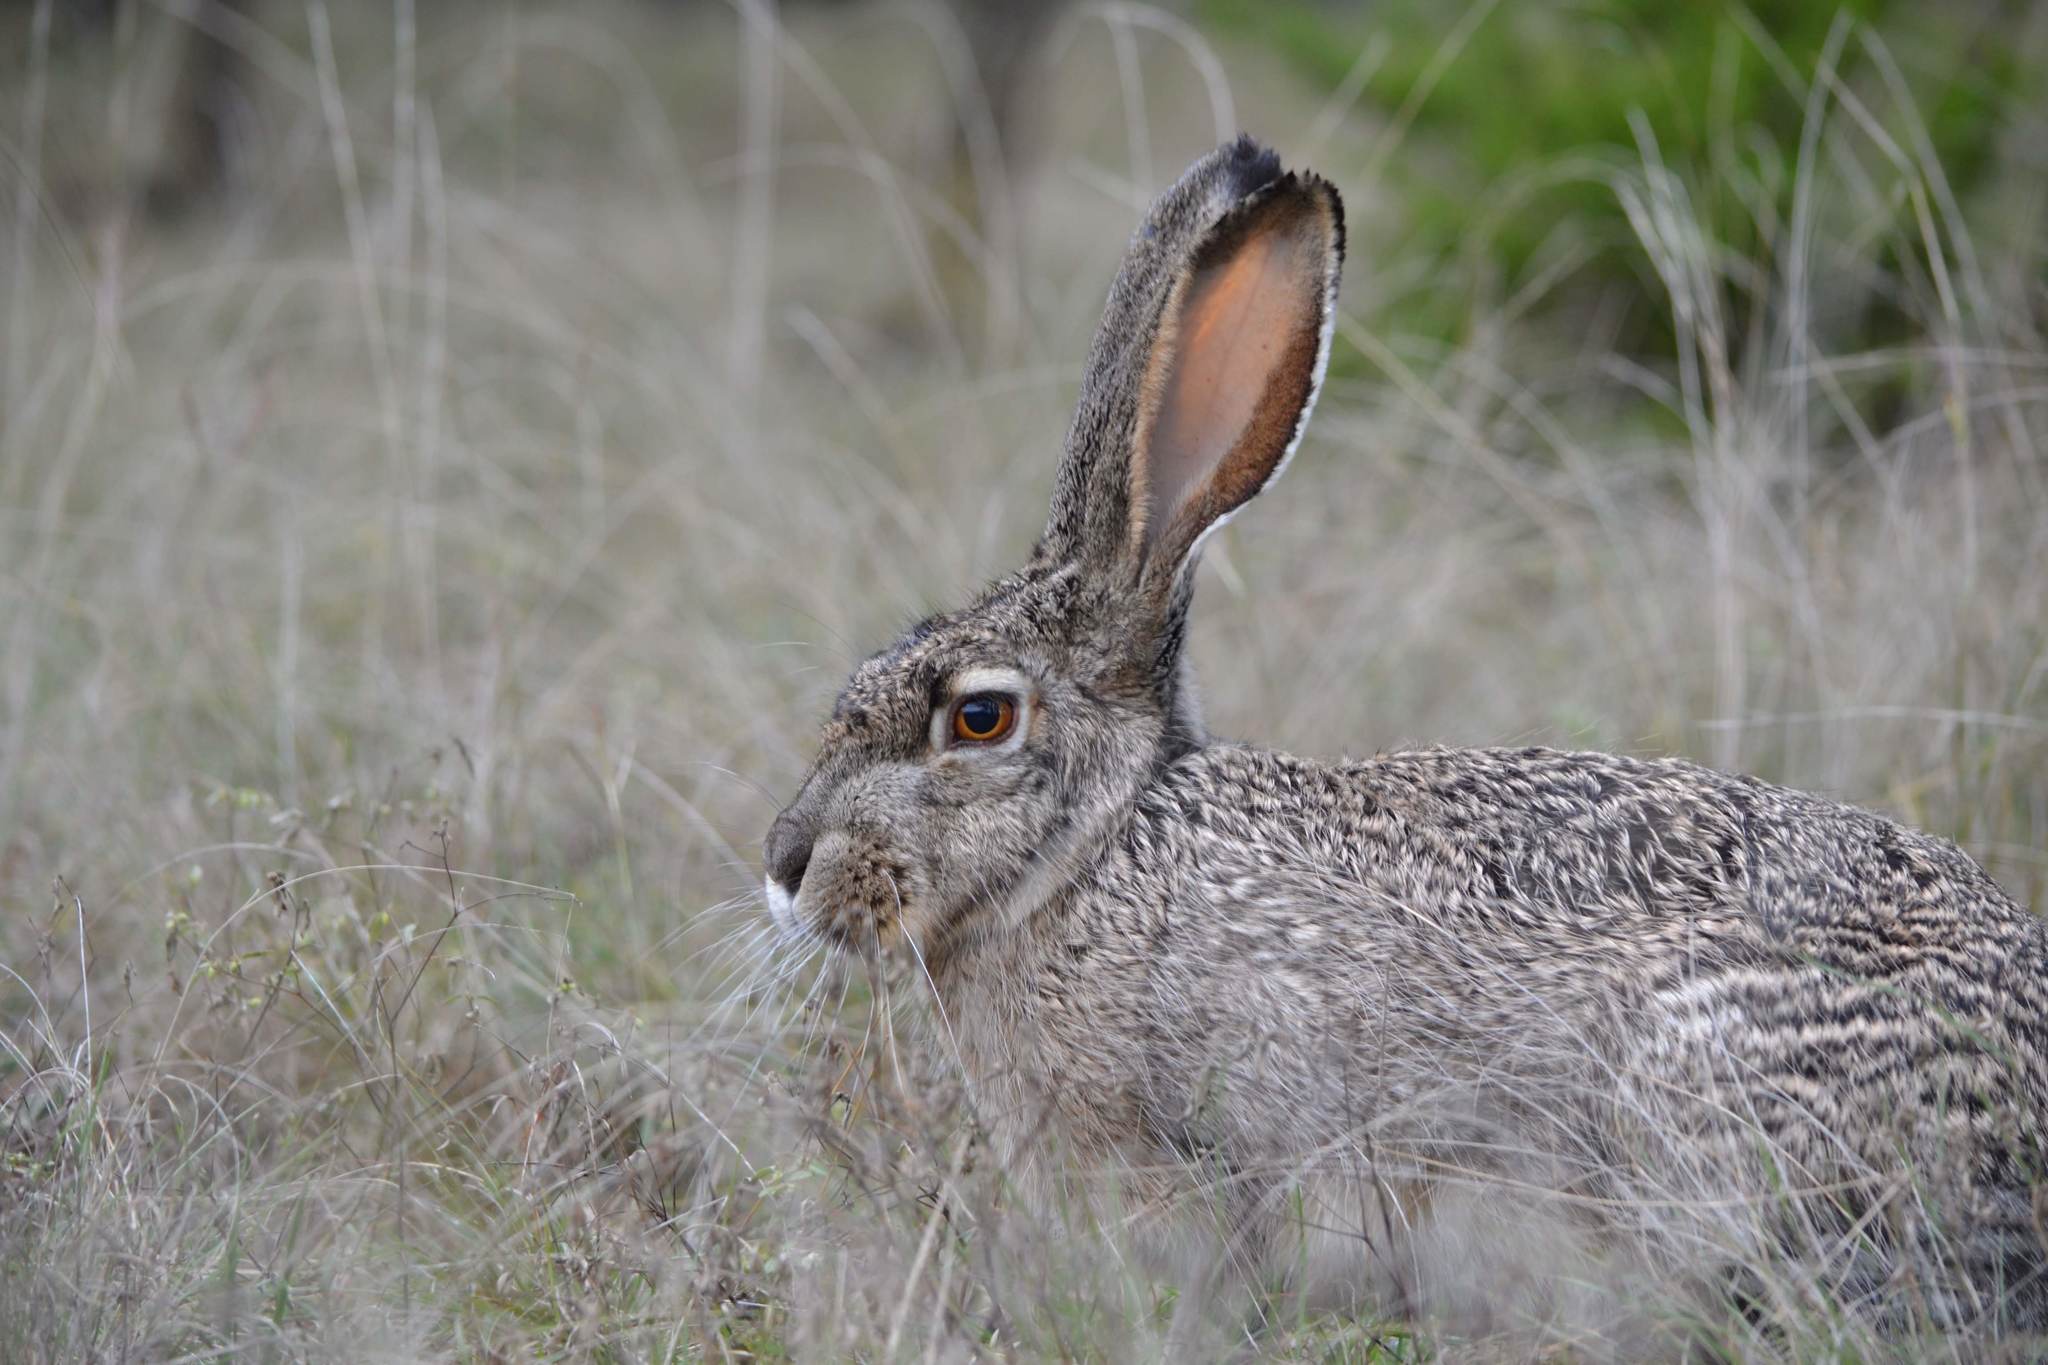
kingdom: Animalia
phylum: Chordata
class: Mammalia
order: Lagomorpha
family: Leporidae
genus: Lepus
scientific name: Lepus californicus
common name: Black-tailed jackrabbit
